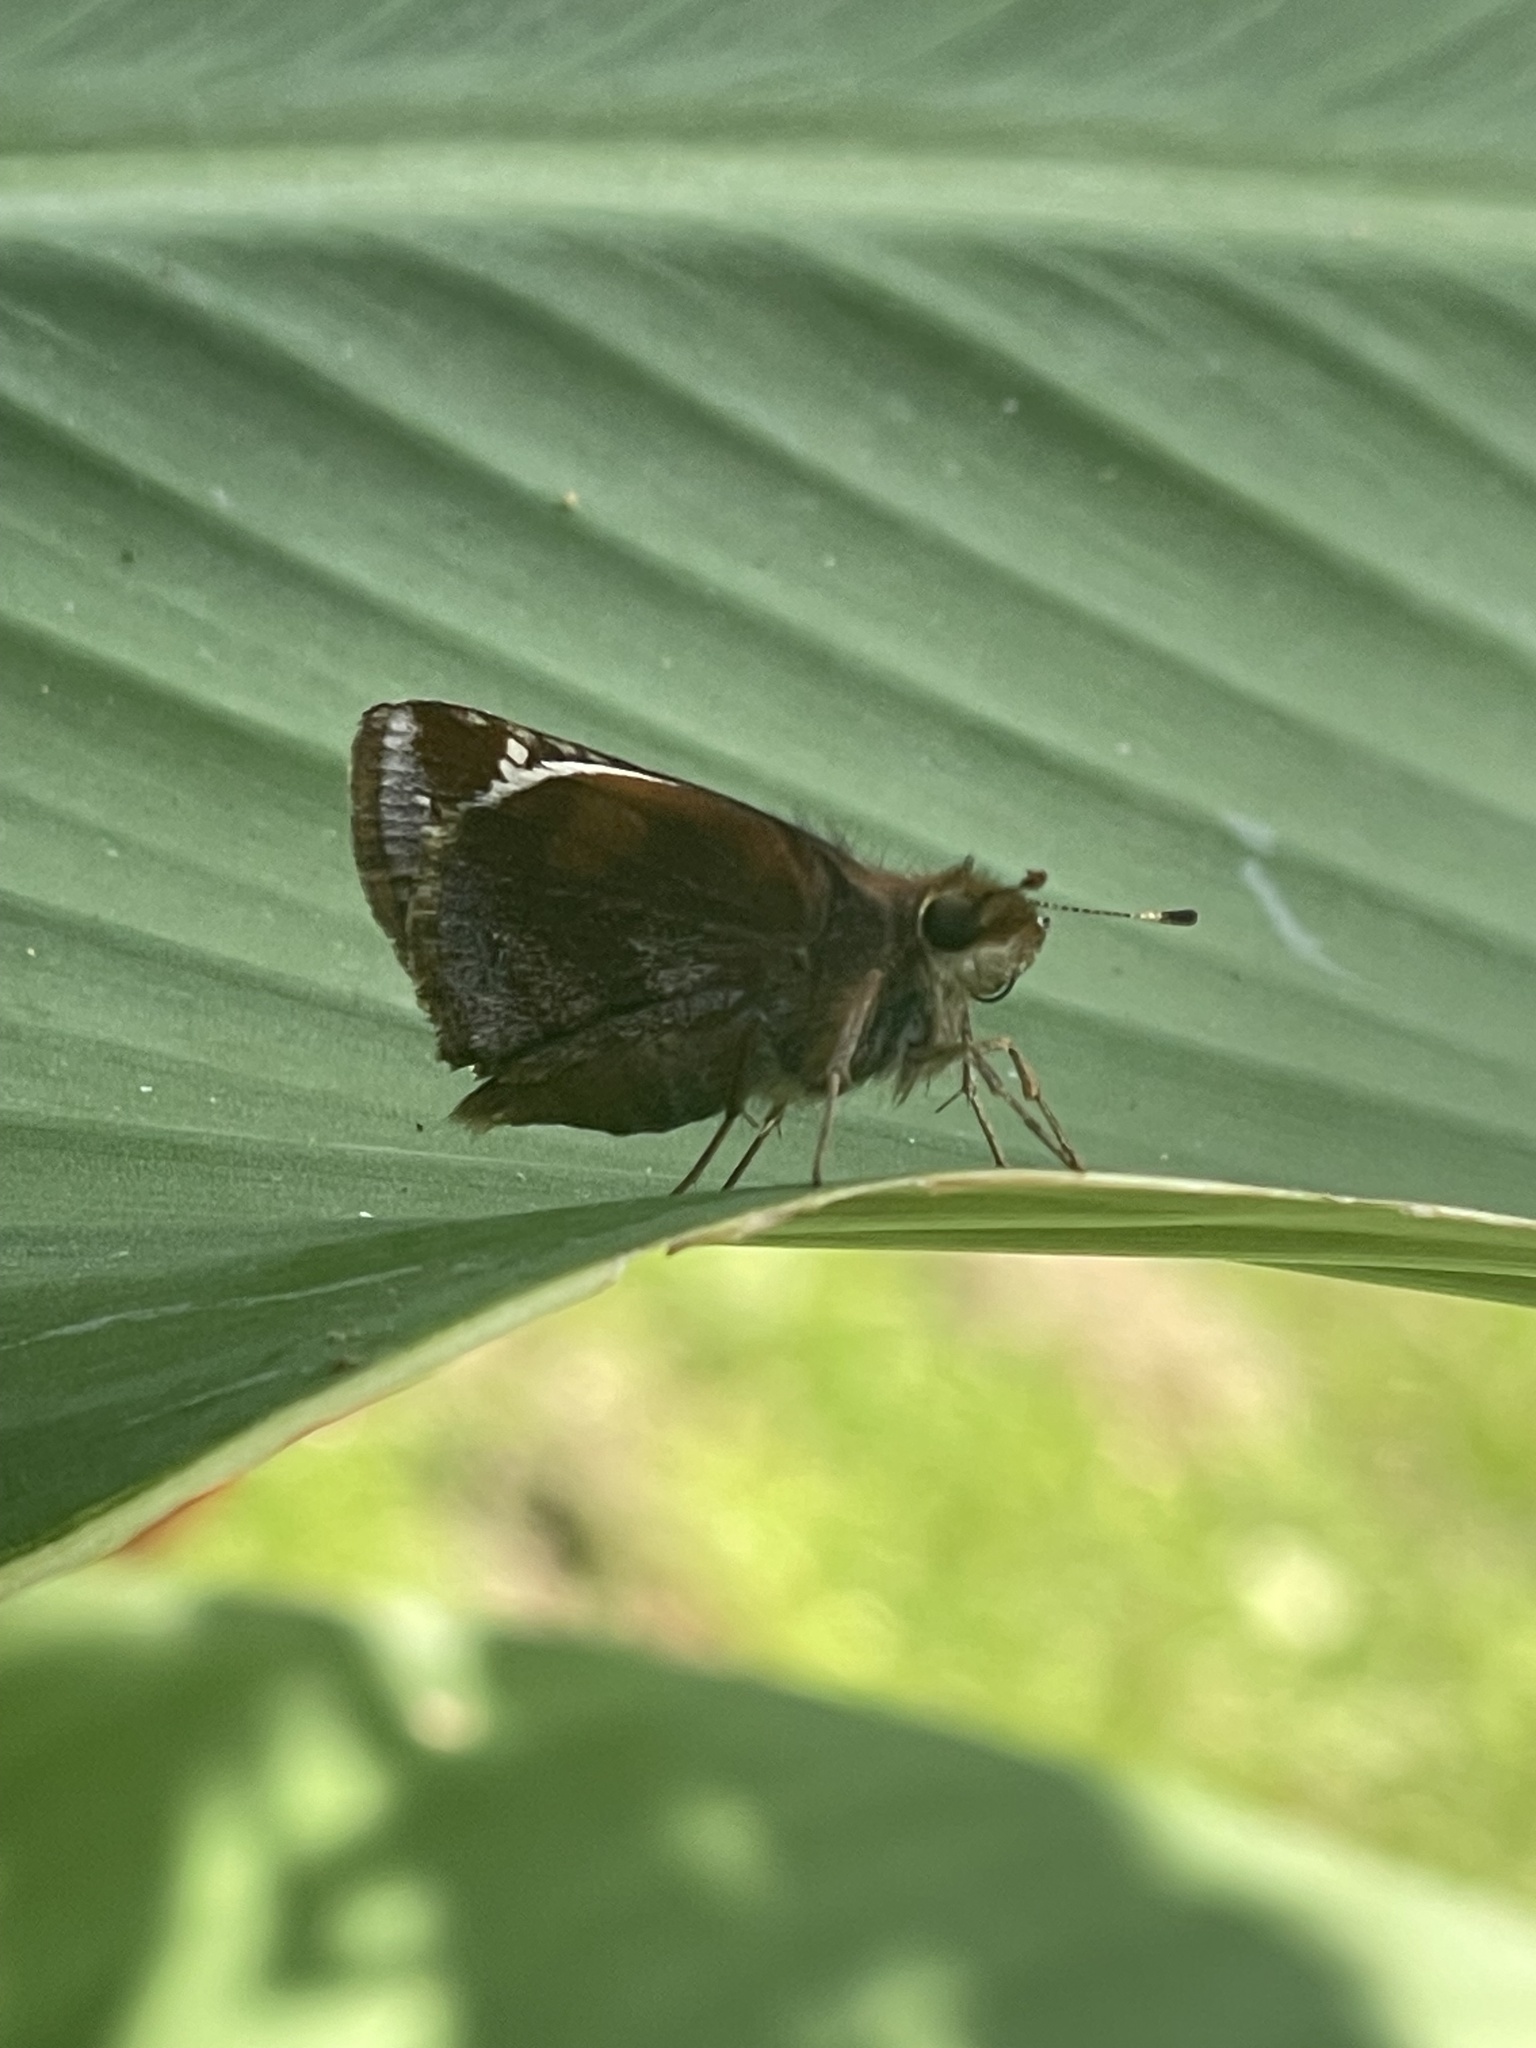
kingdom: Animalia
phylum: Arthropoda
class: Insecta
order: Lepidoptera
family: Hesperiidae
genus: Lon
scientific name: Lon zabulon
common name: Zabulon skipper
